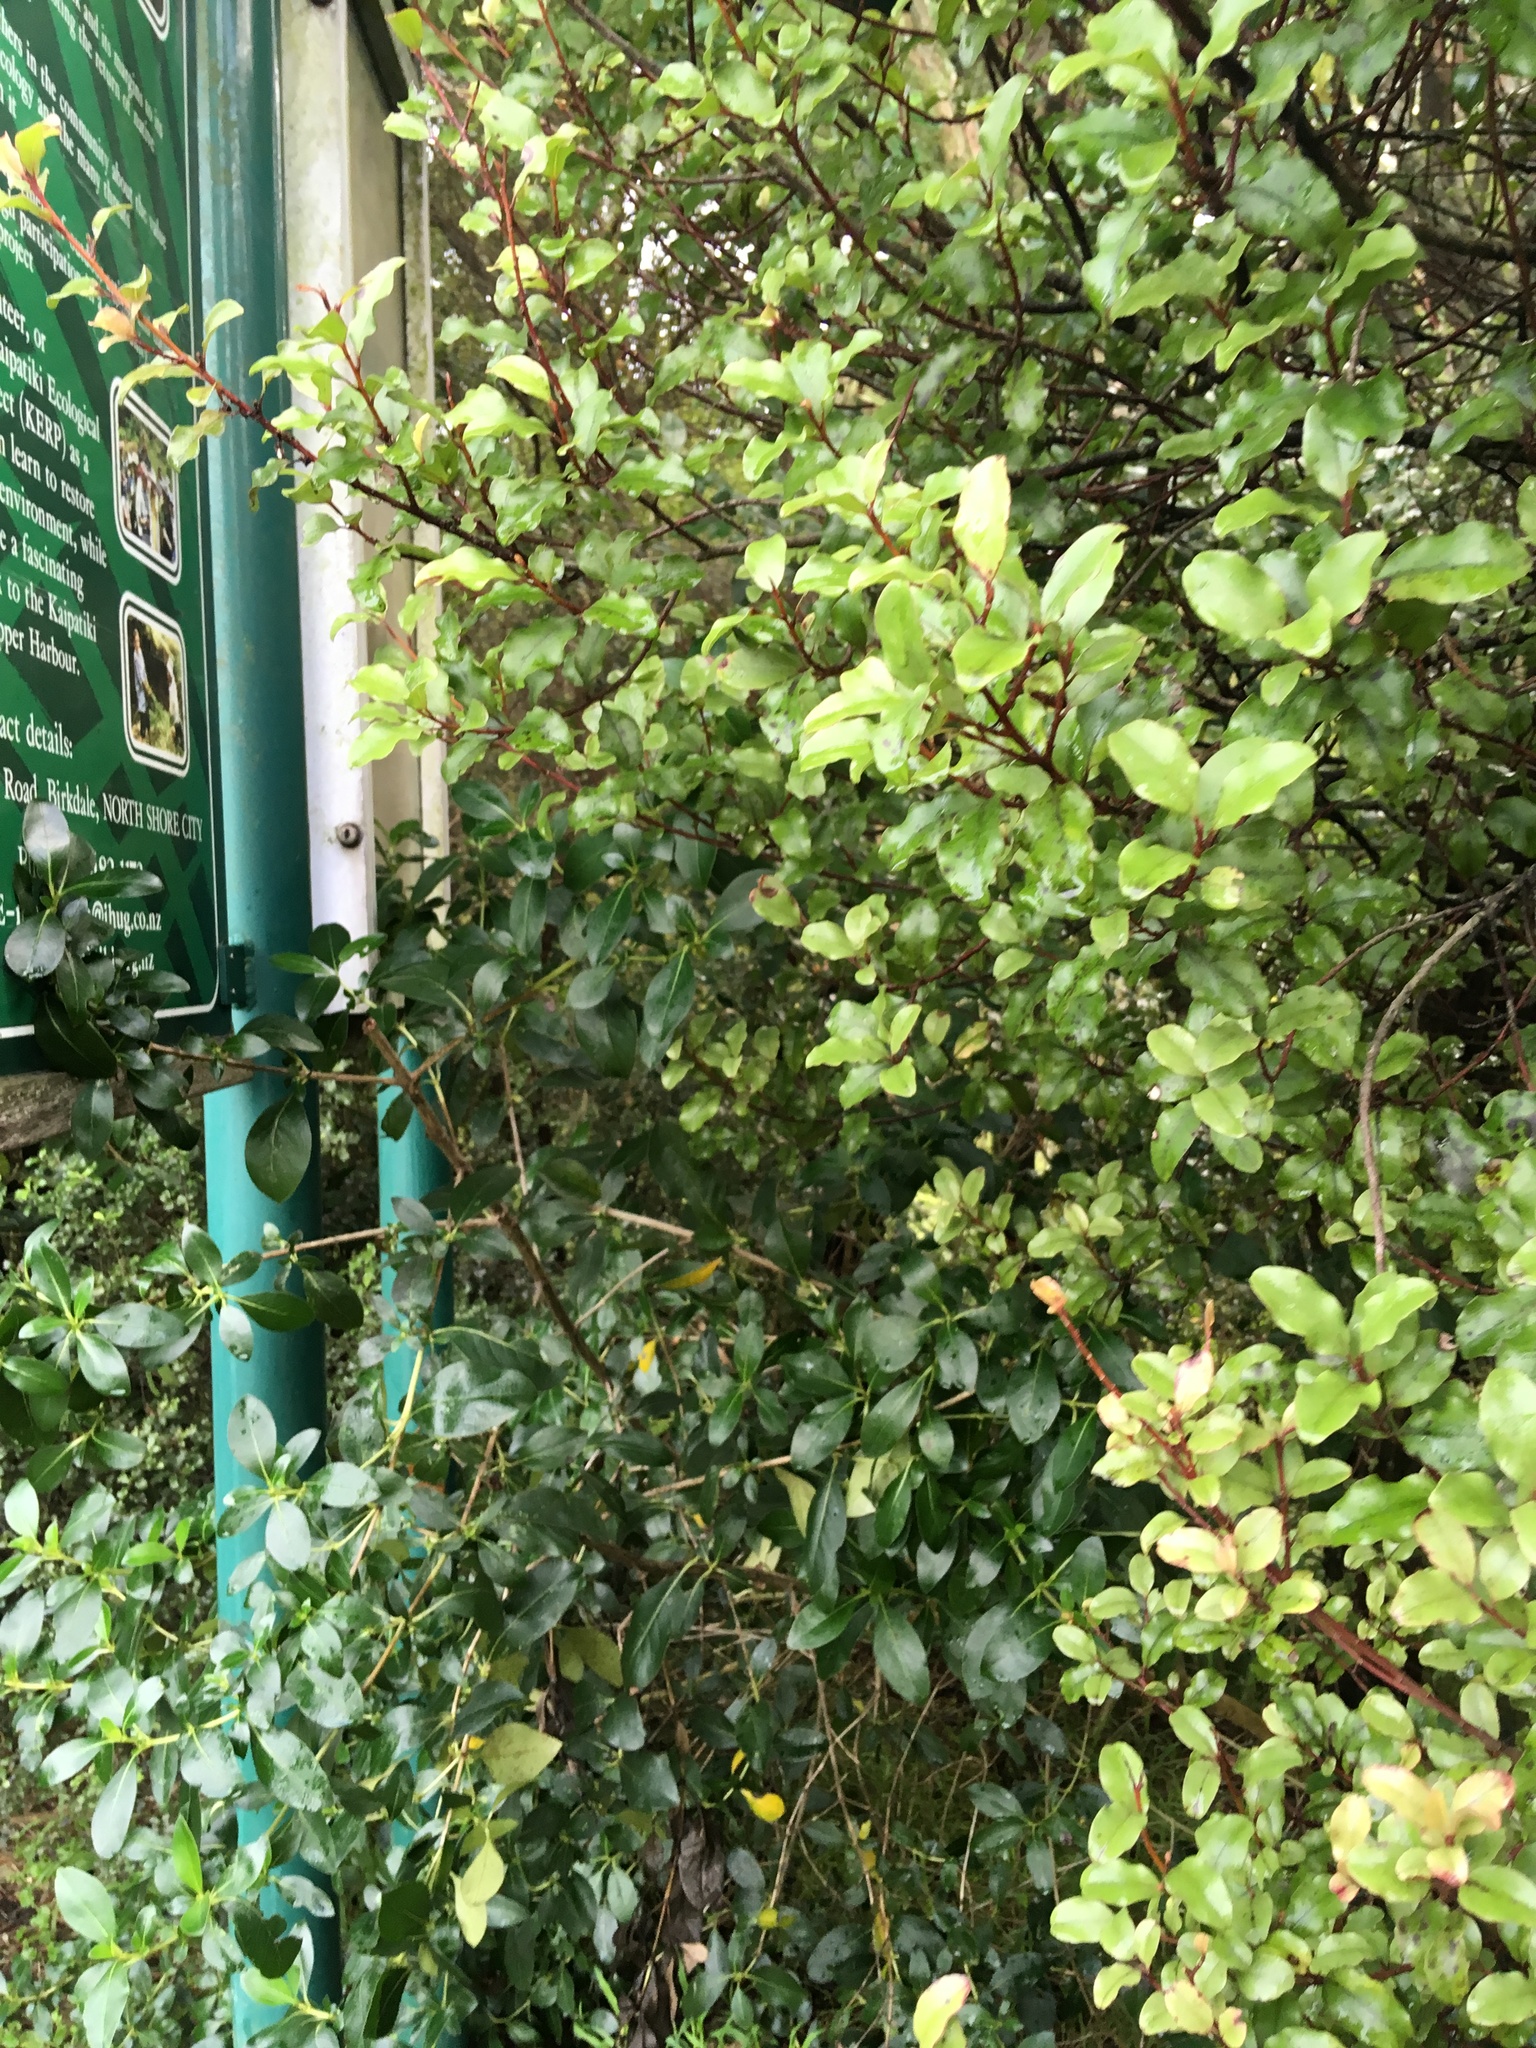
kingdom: Plantae
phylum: Tracheophyta
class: Magnoliopsida
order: Ericales
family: Primulaceae
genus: Myrsine
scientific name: Myrsine australis
